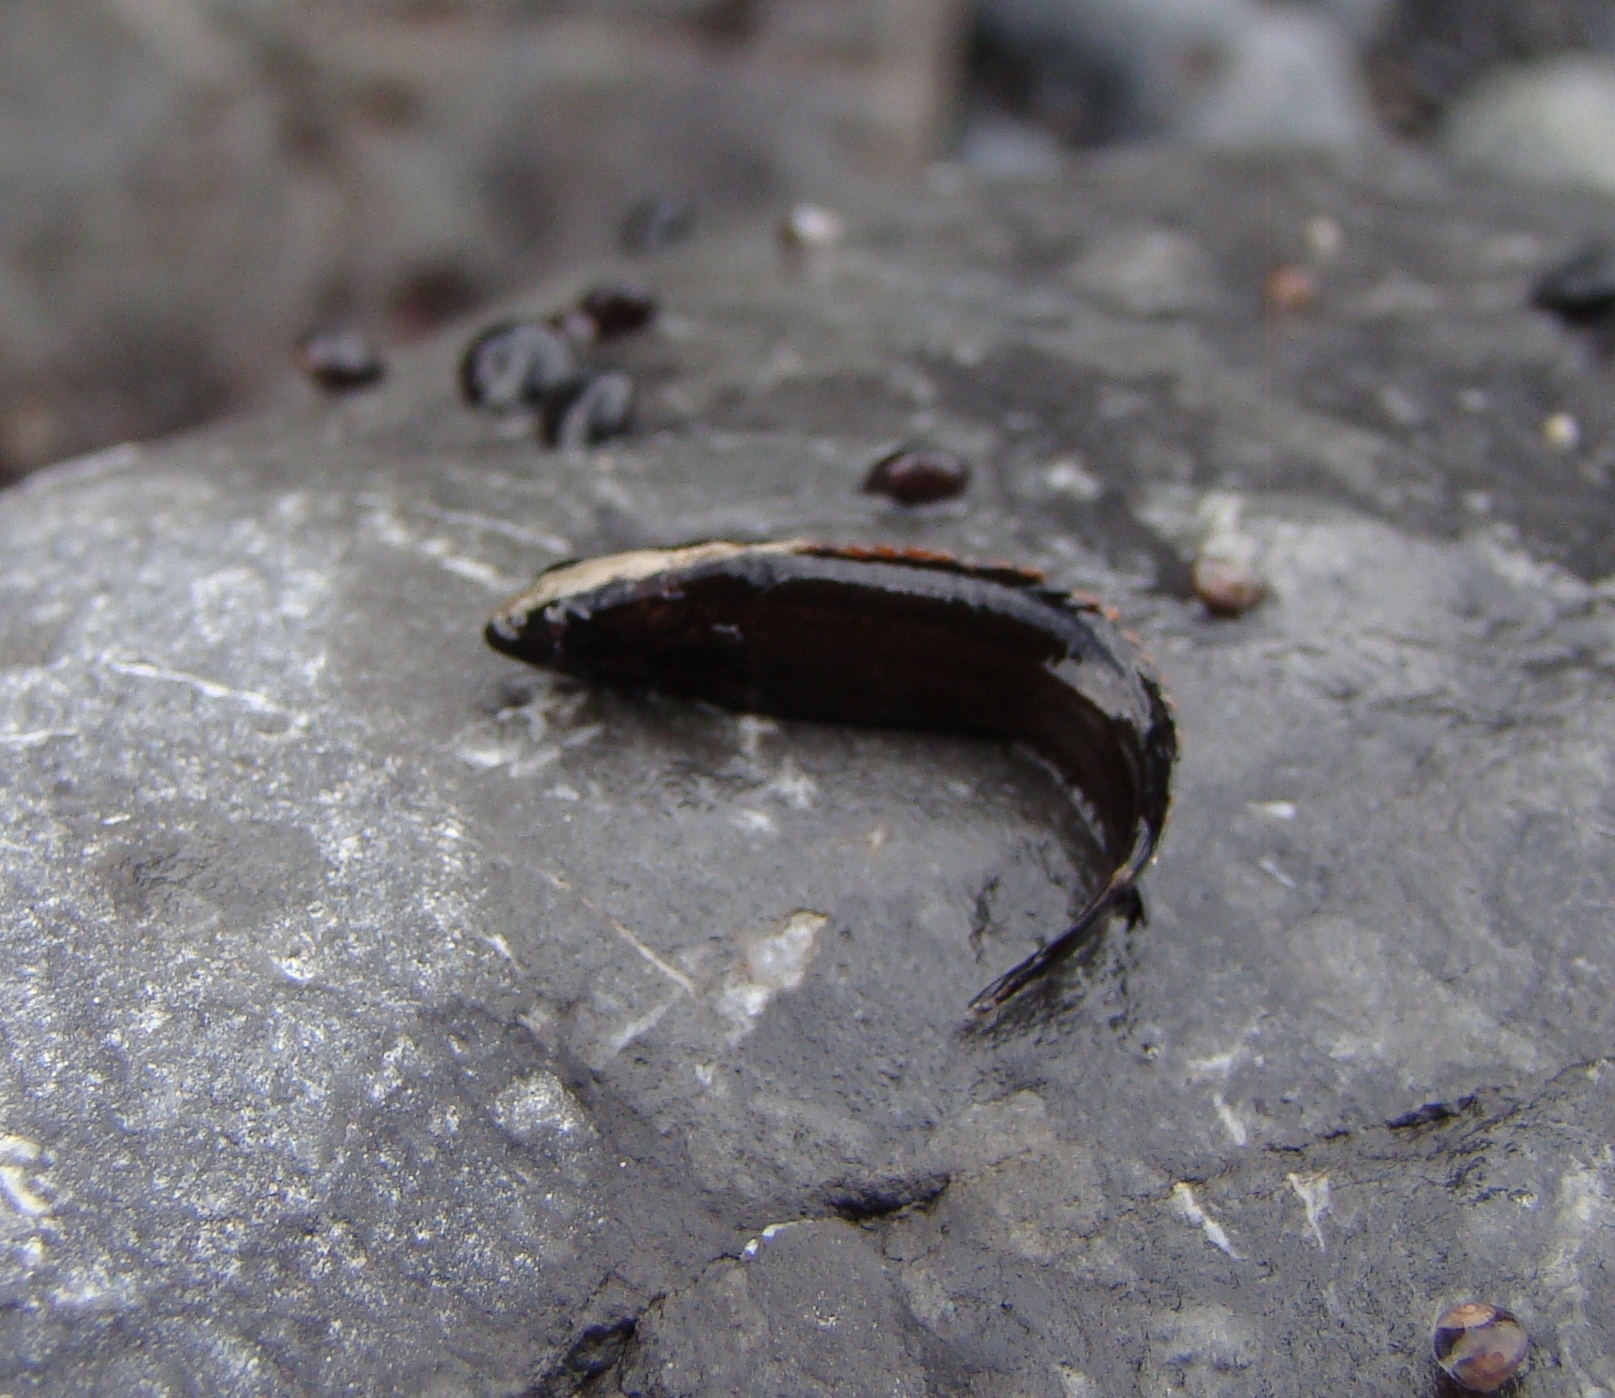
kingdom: Animalia
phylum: Chordata
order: Perciformes
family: Plesiopidae
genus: Acanthoclinus
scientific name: Acanthoclinus fuscus
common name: Olive rockfish
